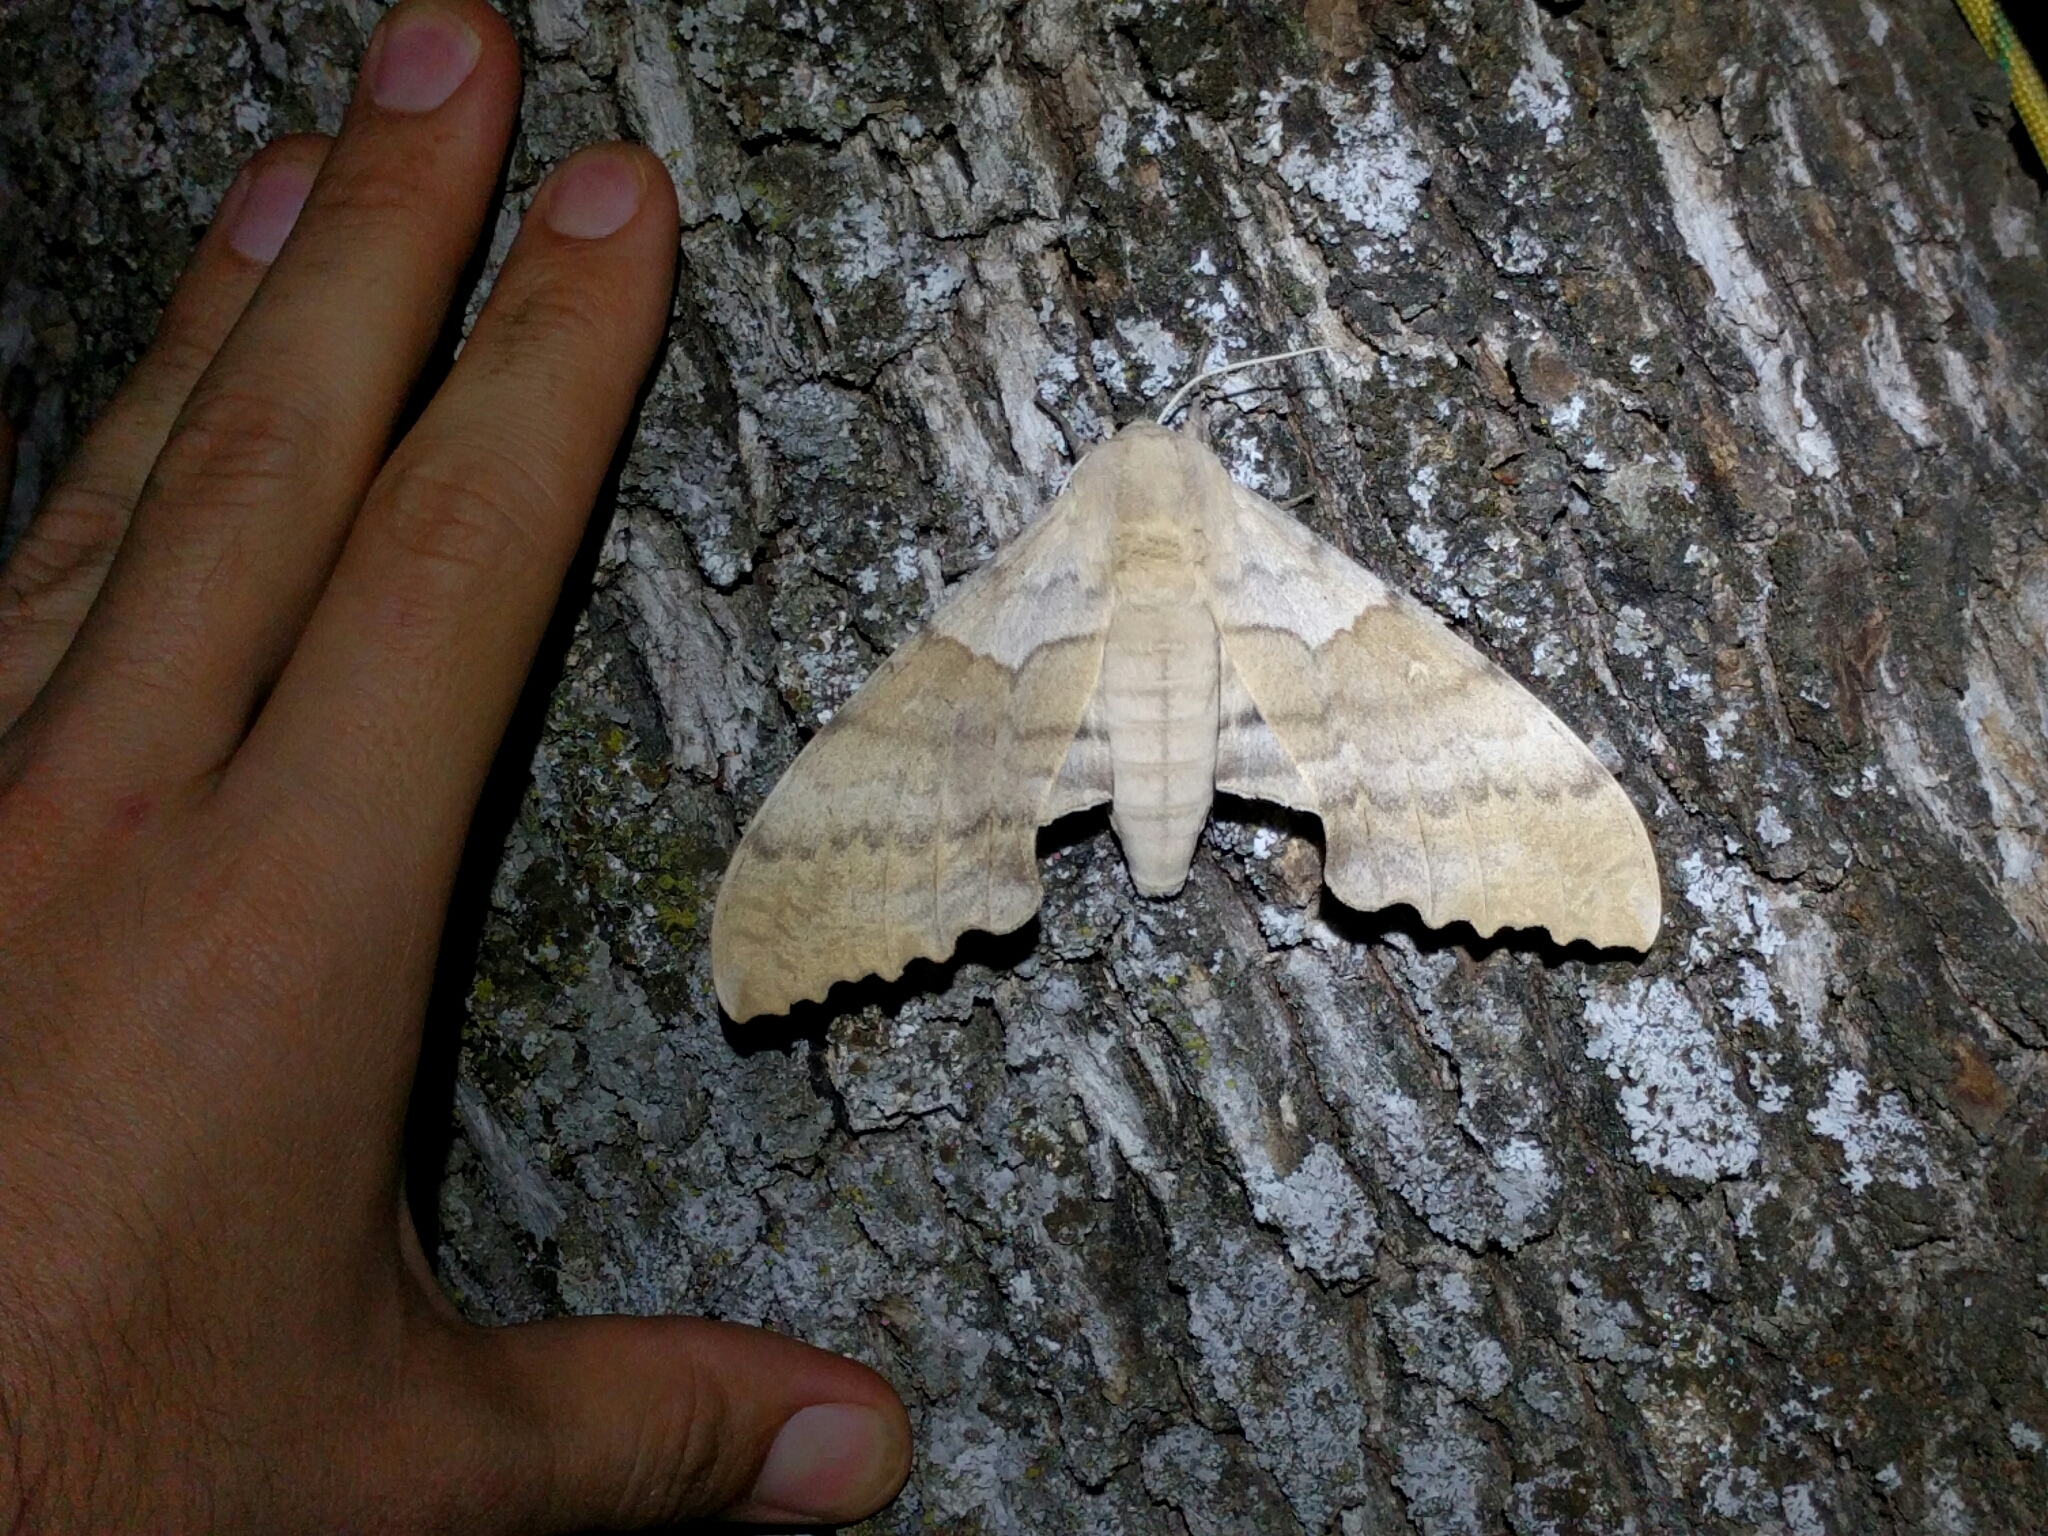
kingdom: Animalia
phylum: Arthropoda
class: Insecta
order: Lepidoptera
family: Sphingidae
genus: Pachysphinx
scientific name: Pachysphinx occidentalis
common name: Western poplar sphinx
